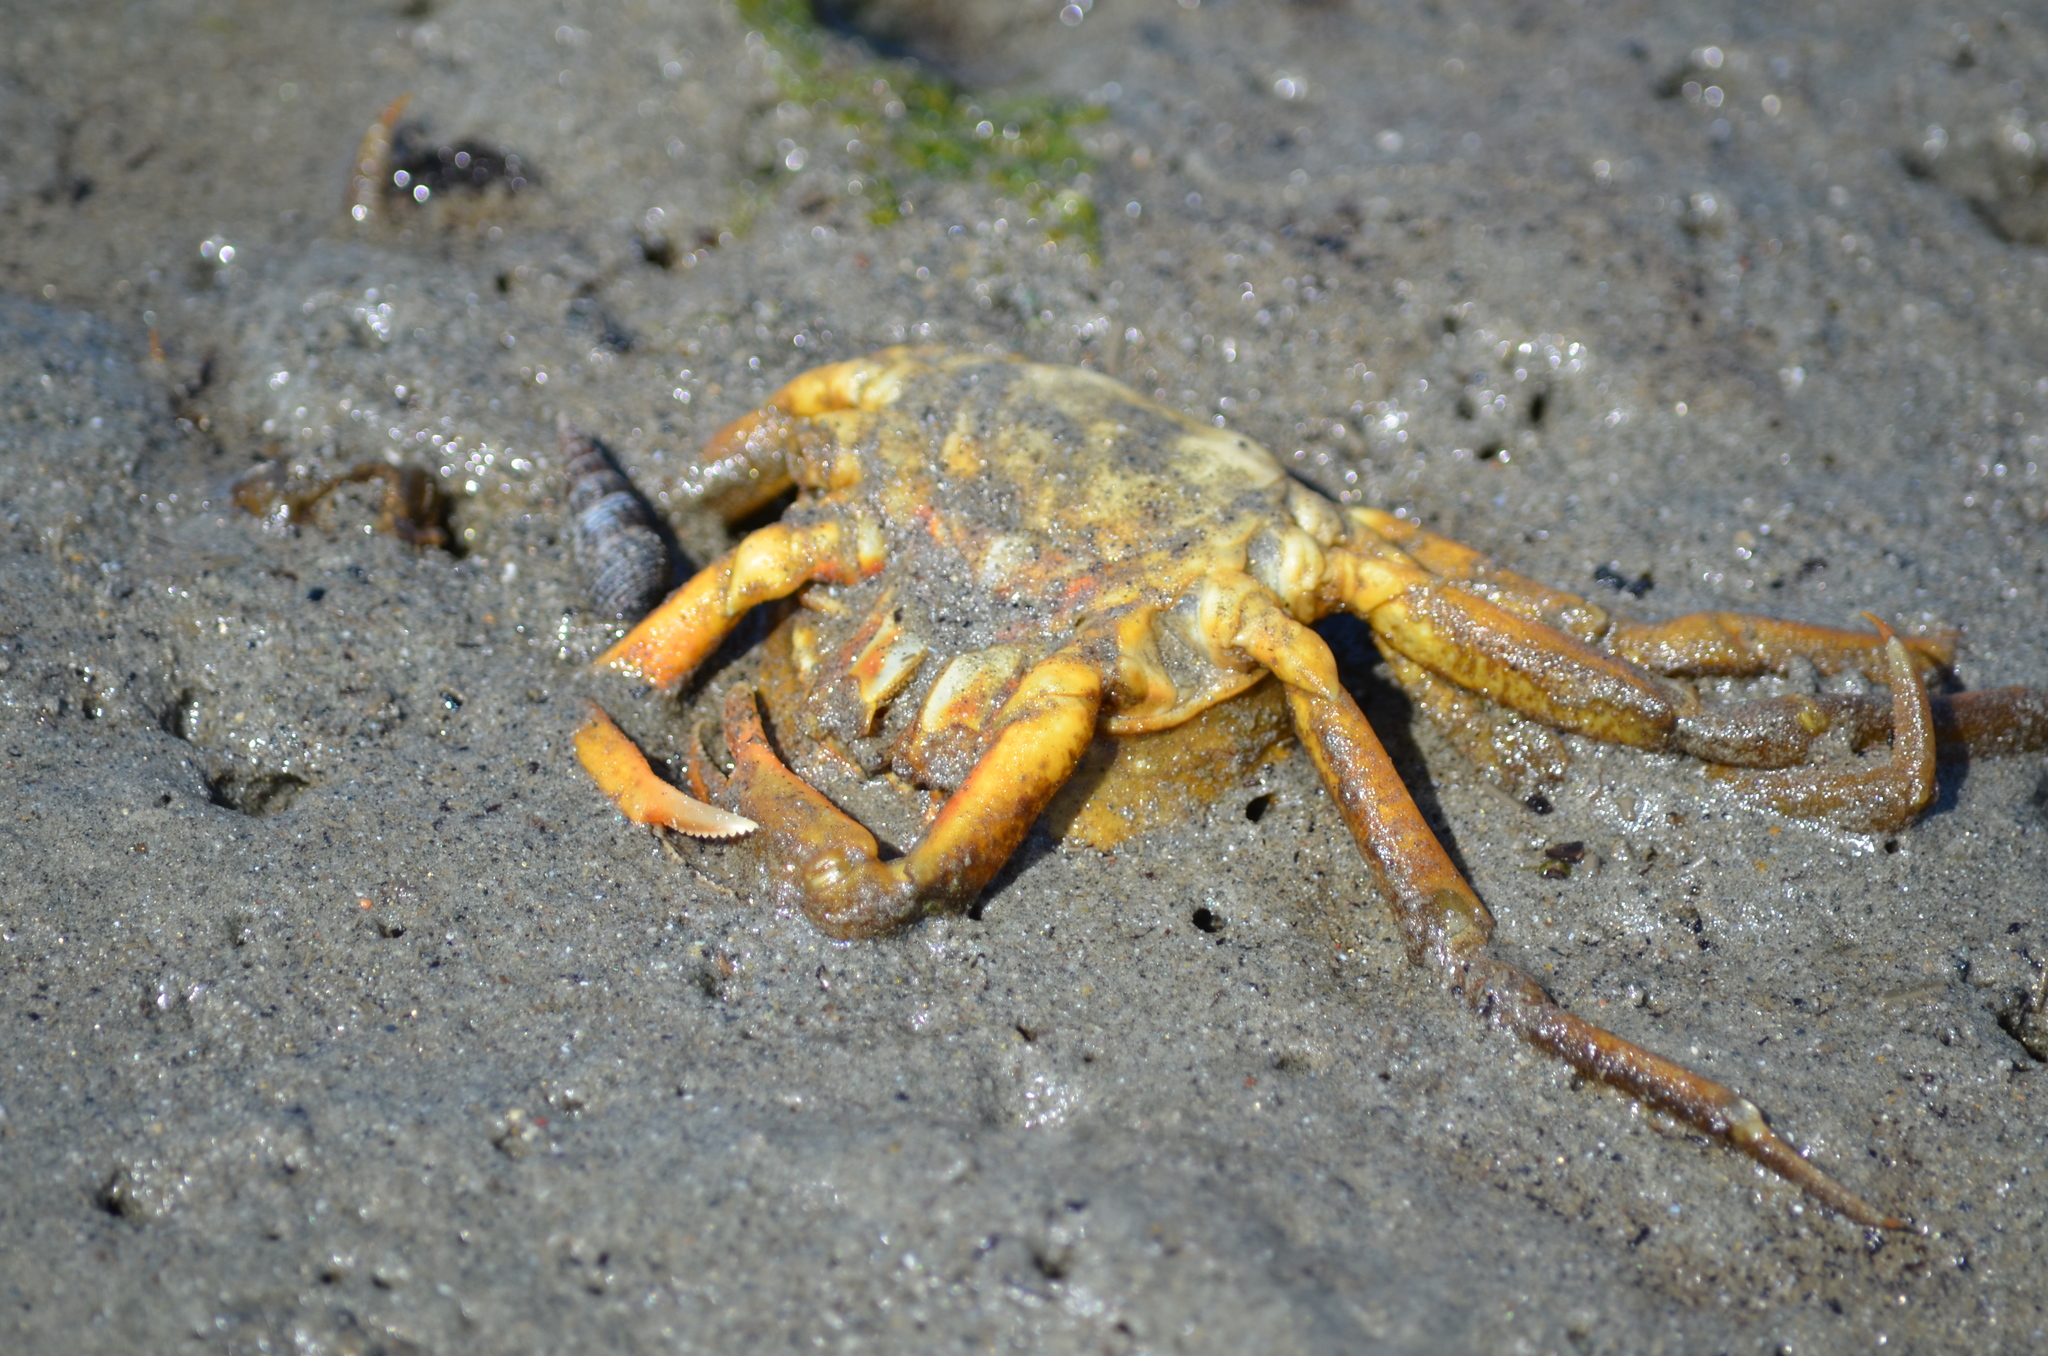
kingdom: Animalia
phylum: Arthropoda
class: Malacostraca
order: Decapoda
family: Epialtidae
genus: Pugettia
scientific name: Pugettia producta
